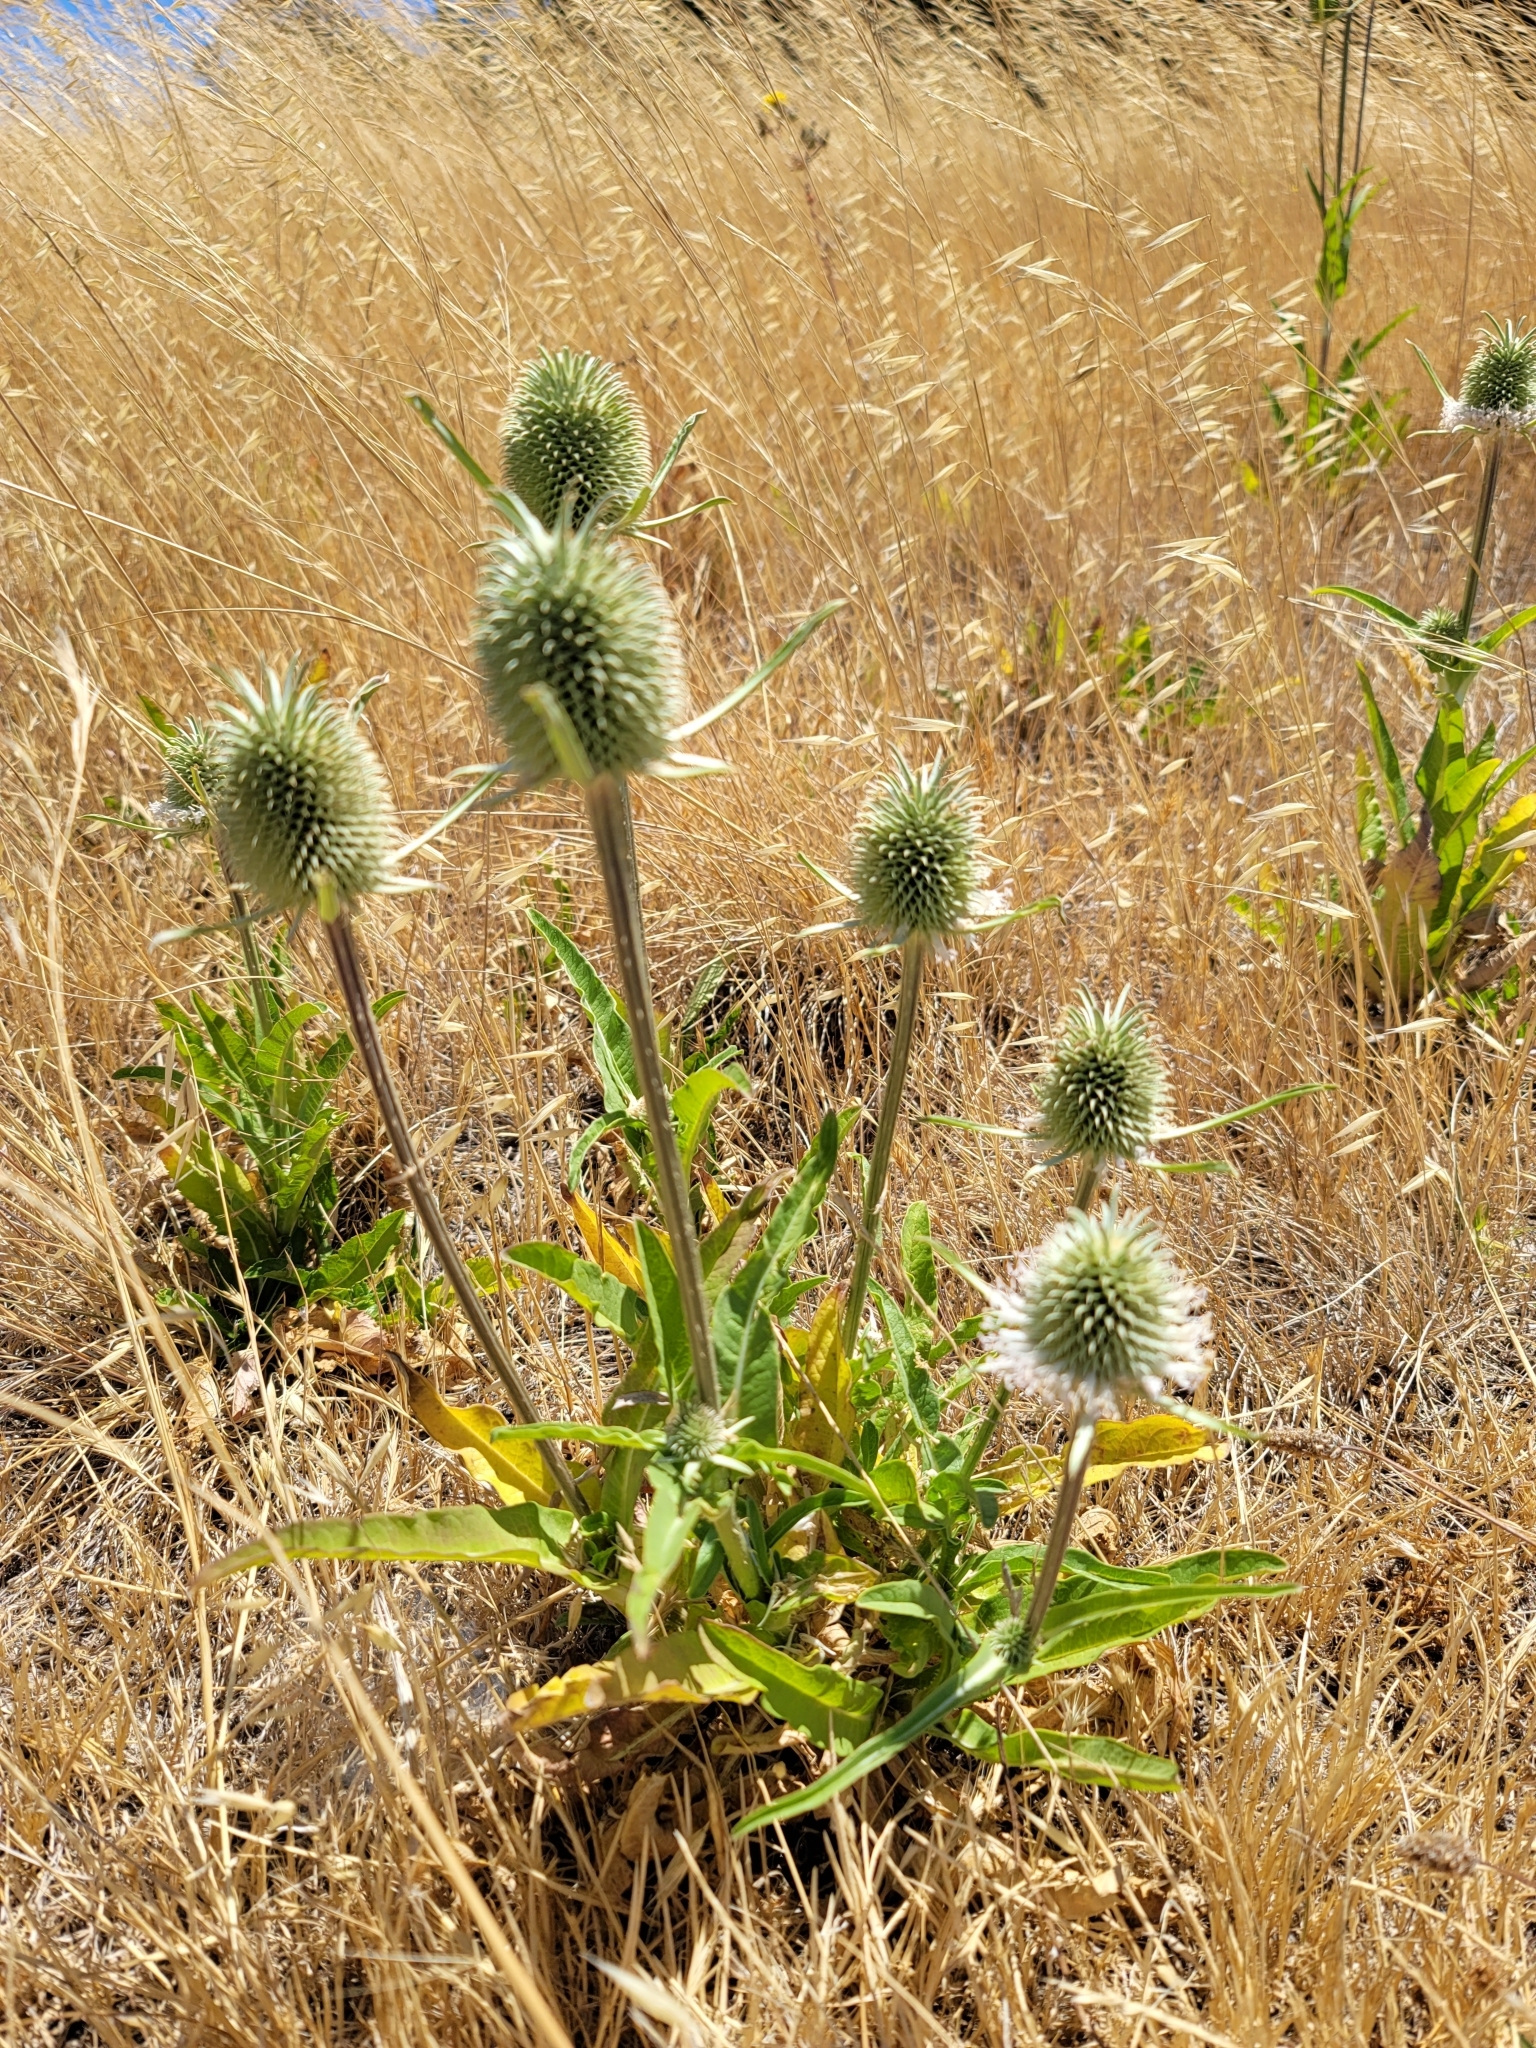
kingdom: Plantae
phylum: Tracheophyta
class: Magnoliopsida
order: Dipsacales
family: Caprifoliaceae
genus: Dipsacus
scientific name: Dipsacus sativus
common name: Fuller's teasel
